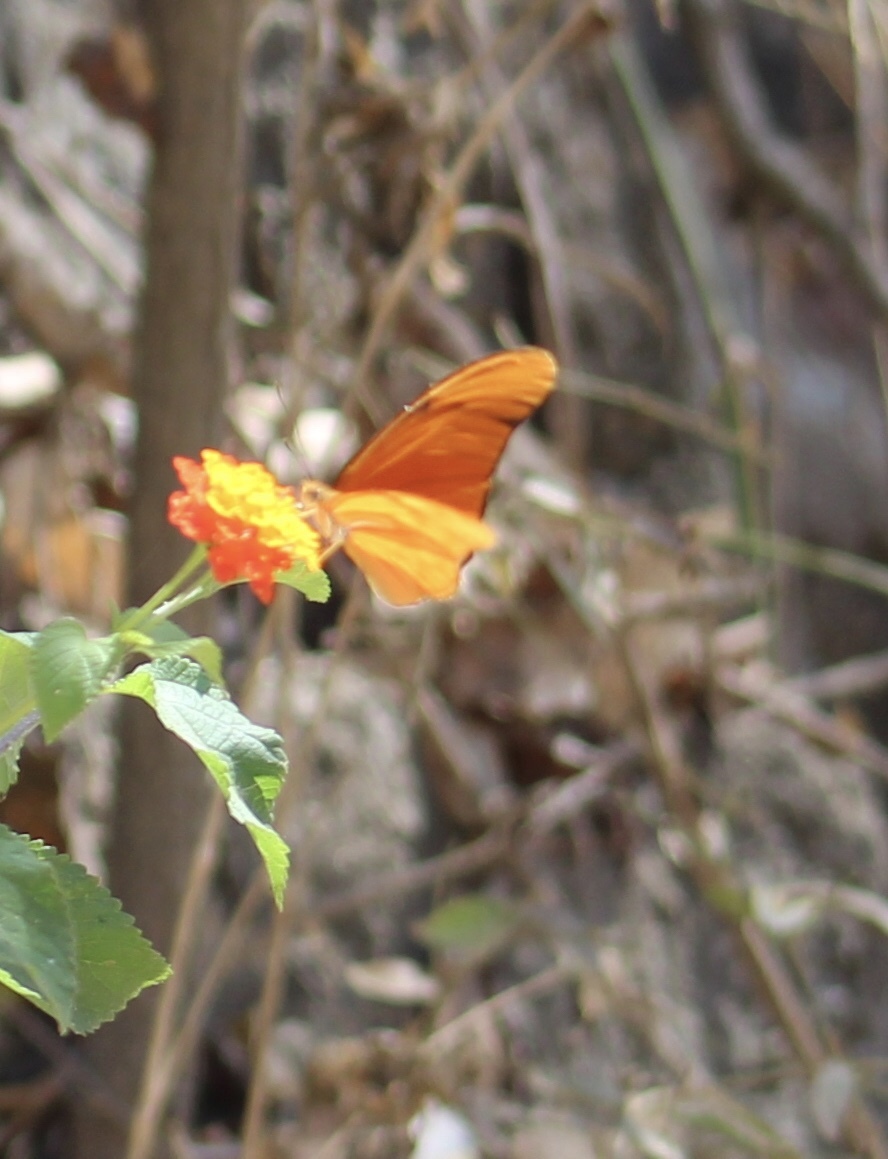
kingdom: Animalia
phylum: Arthropoda
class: Insecta
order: Lepidoptera
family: Nymphalidae
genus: Dryas
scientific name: Dryas iulia
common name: Flambeau
